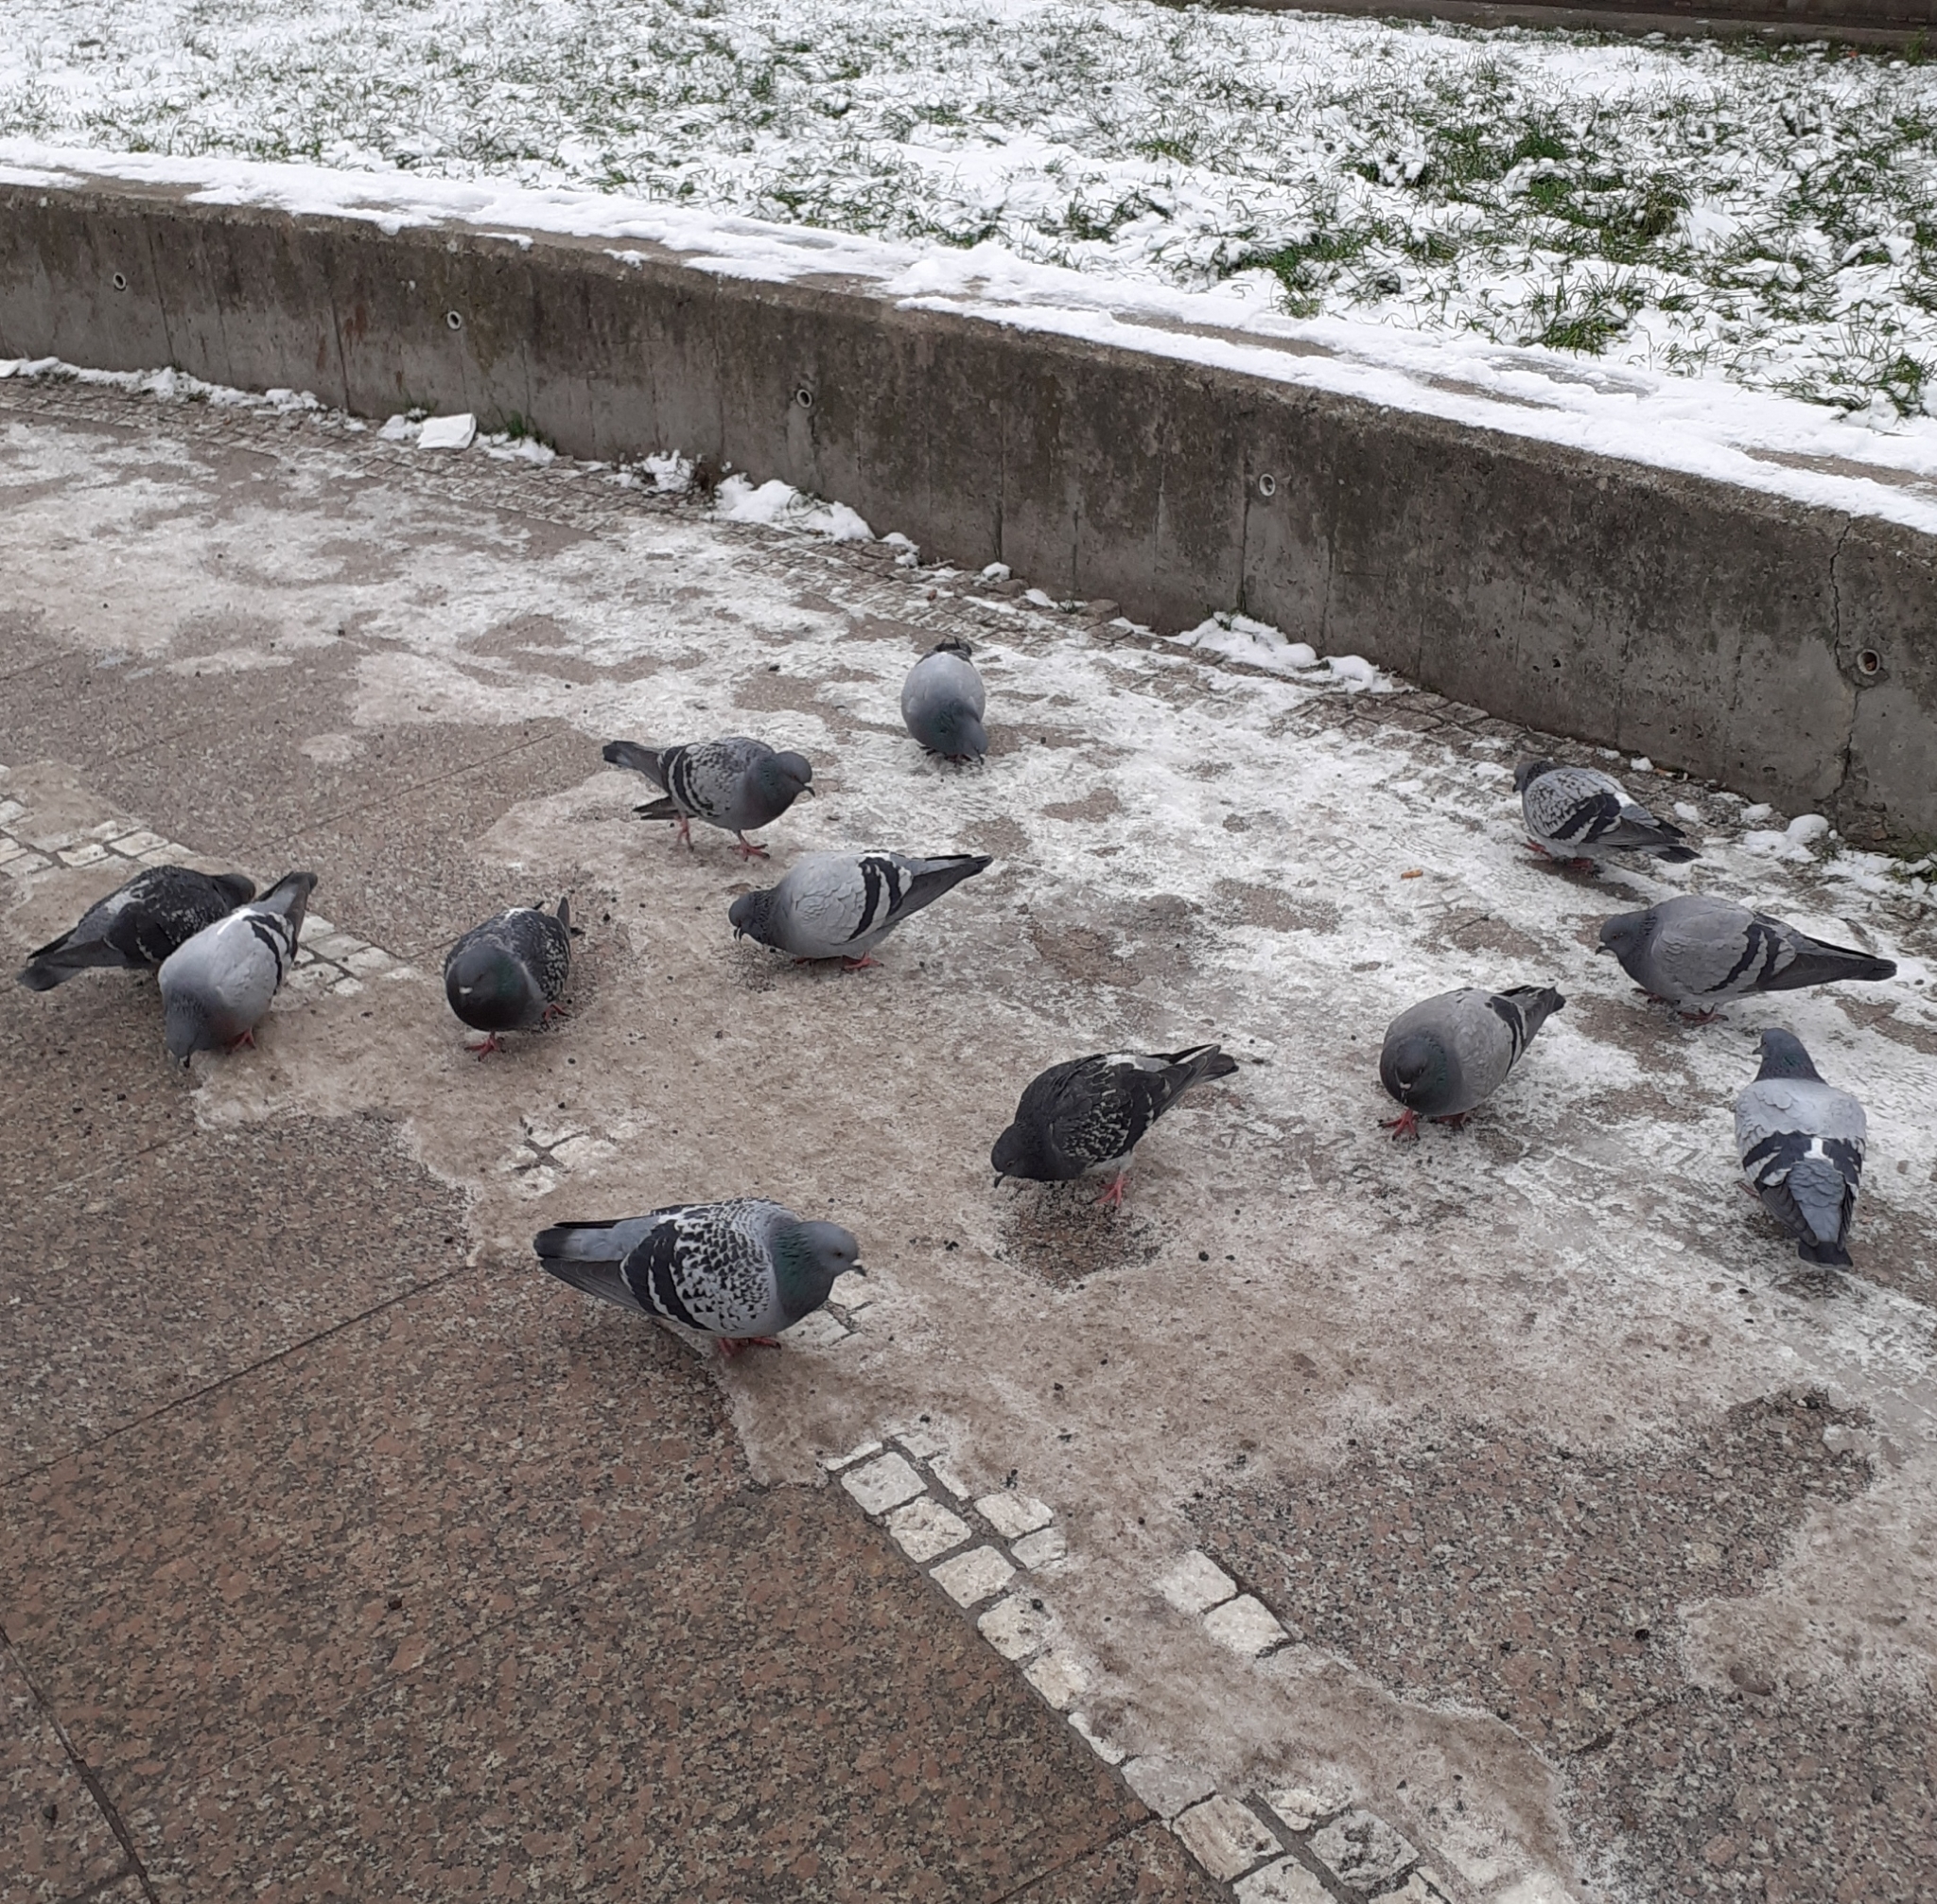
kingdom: Animalia
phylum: Chordata
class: Aves
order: Columbiformes
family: Columbidae
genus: Columba
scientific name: Columba livia
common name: Rock pigeon
